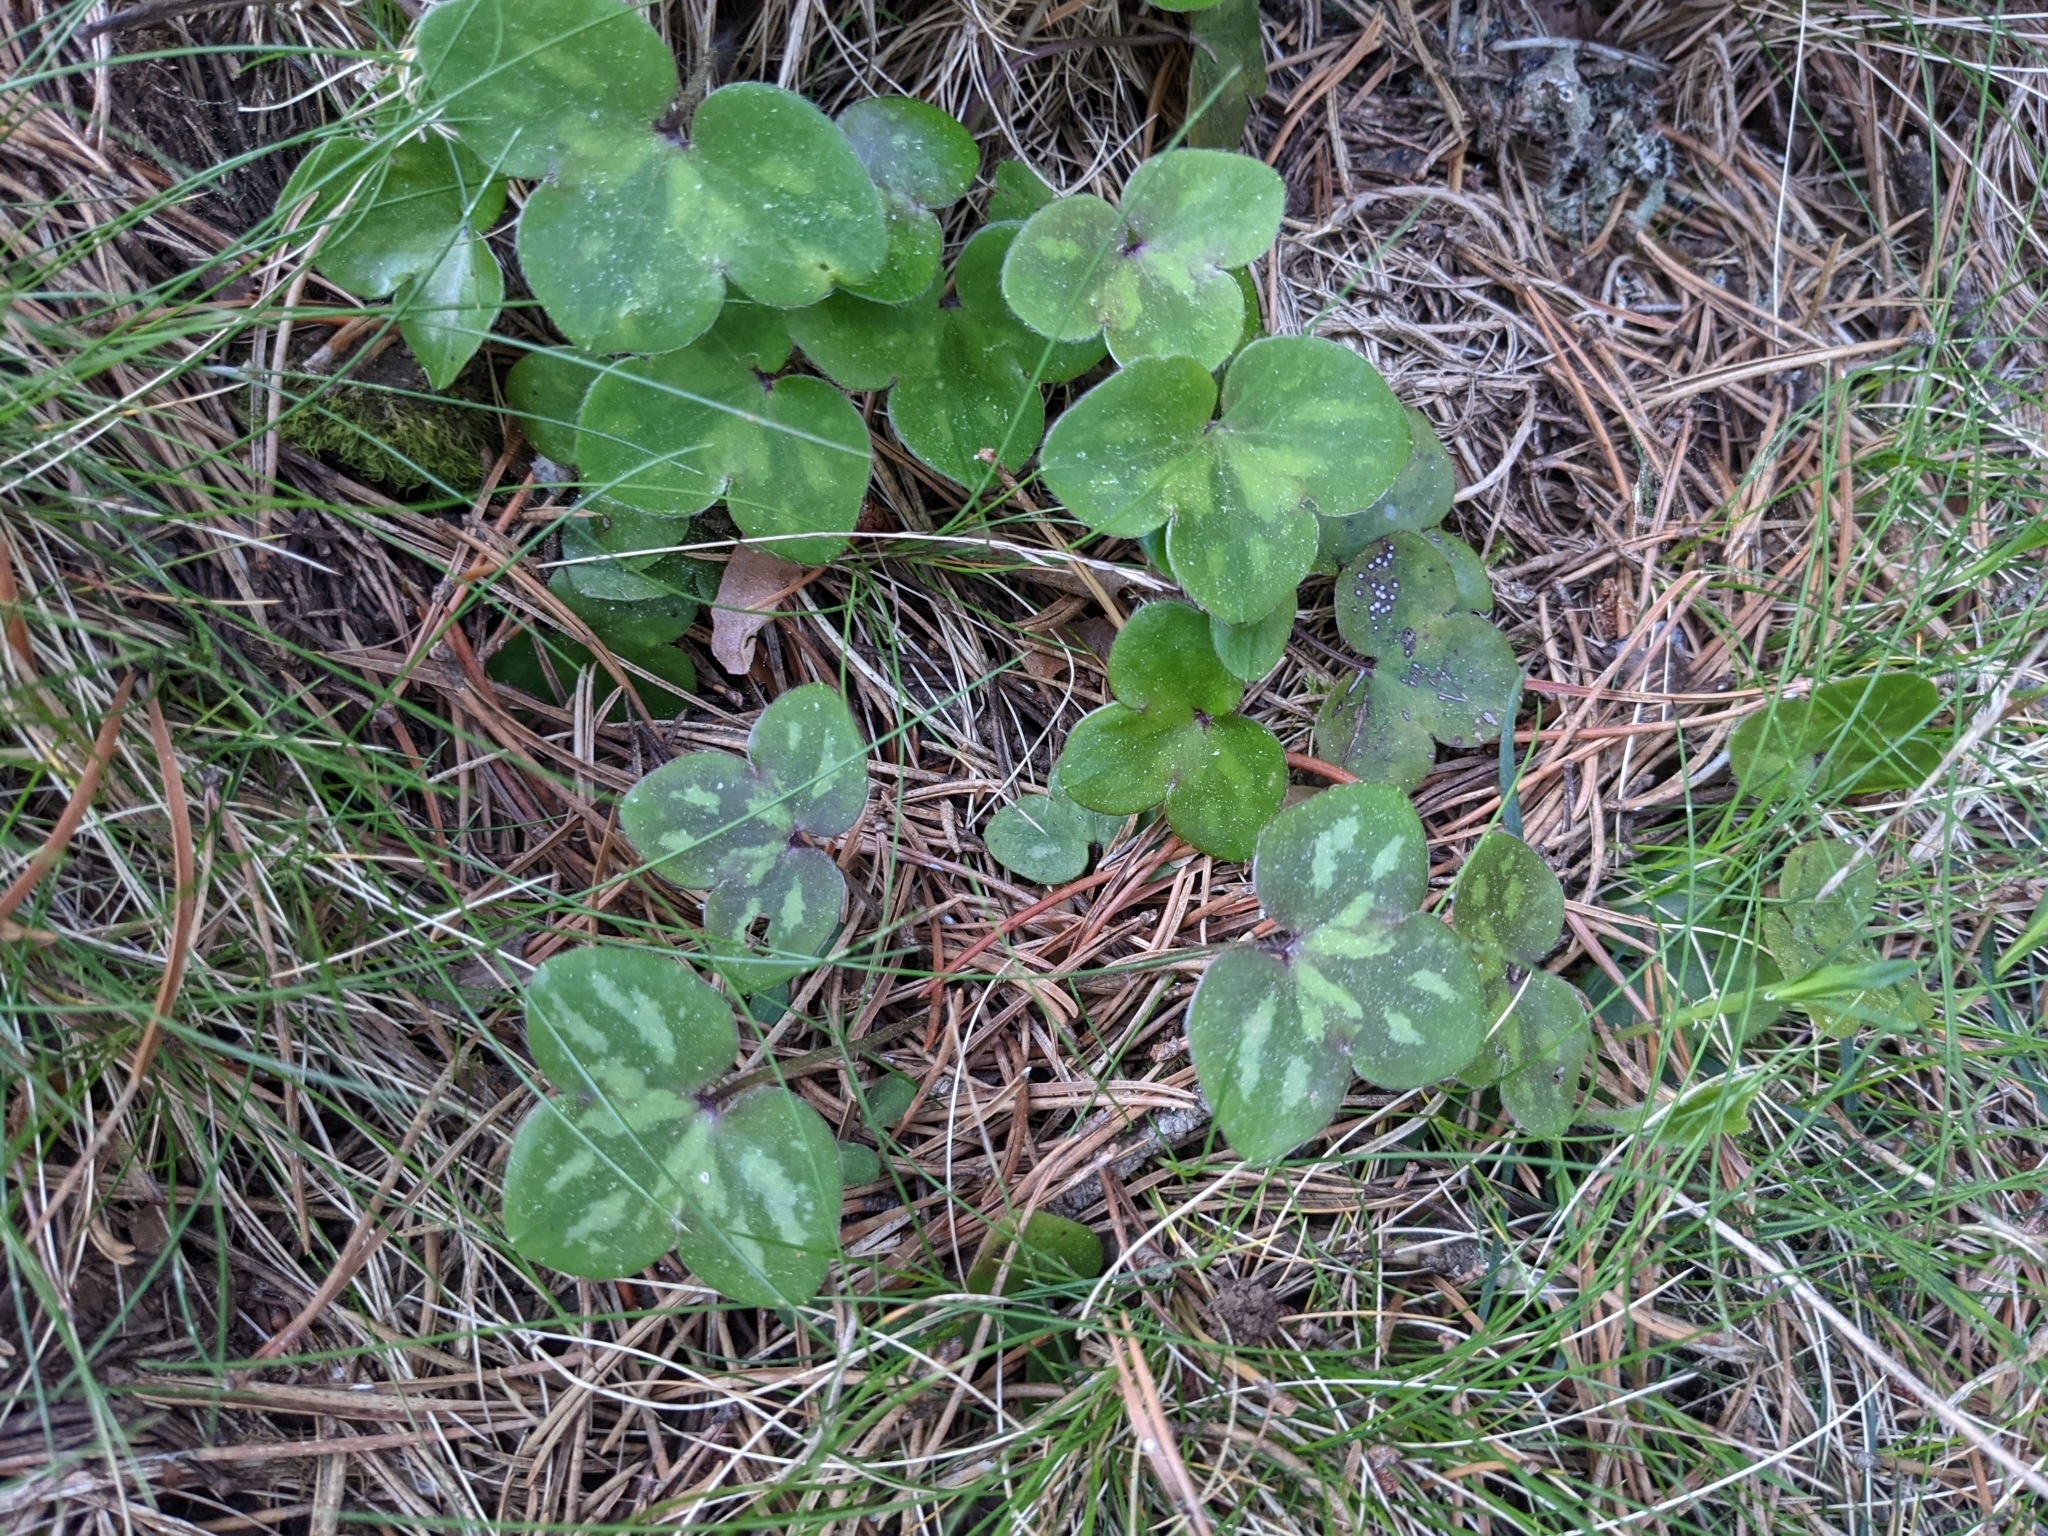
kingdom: Plantae
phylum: Tracheophyta
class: Magnoliopsida
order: Ranunculales
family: Ranunculaceae
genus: Hepatica
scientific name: Hepatica nobilis
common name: Liverleaf
